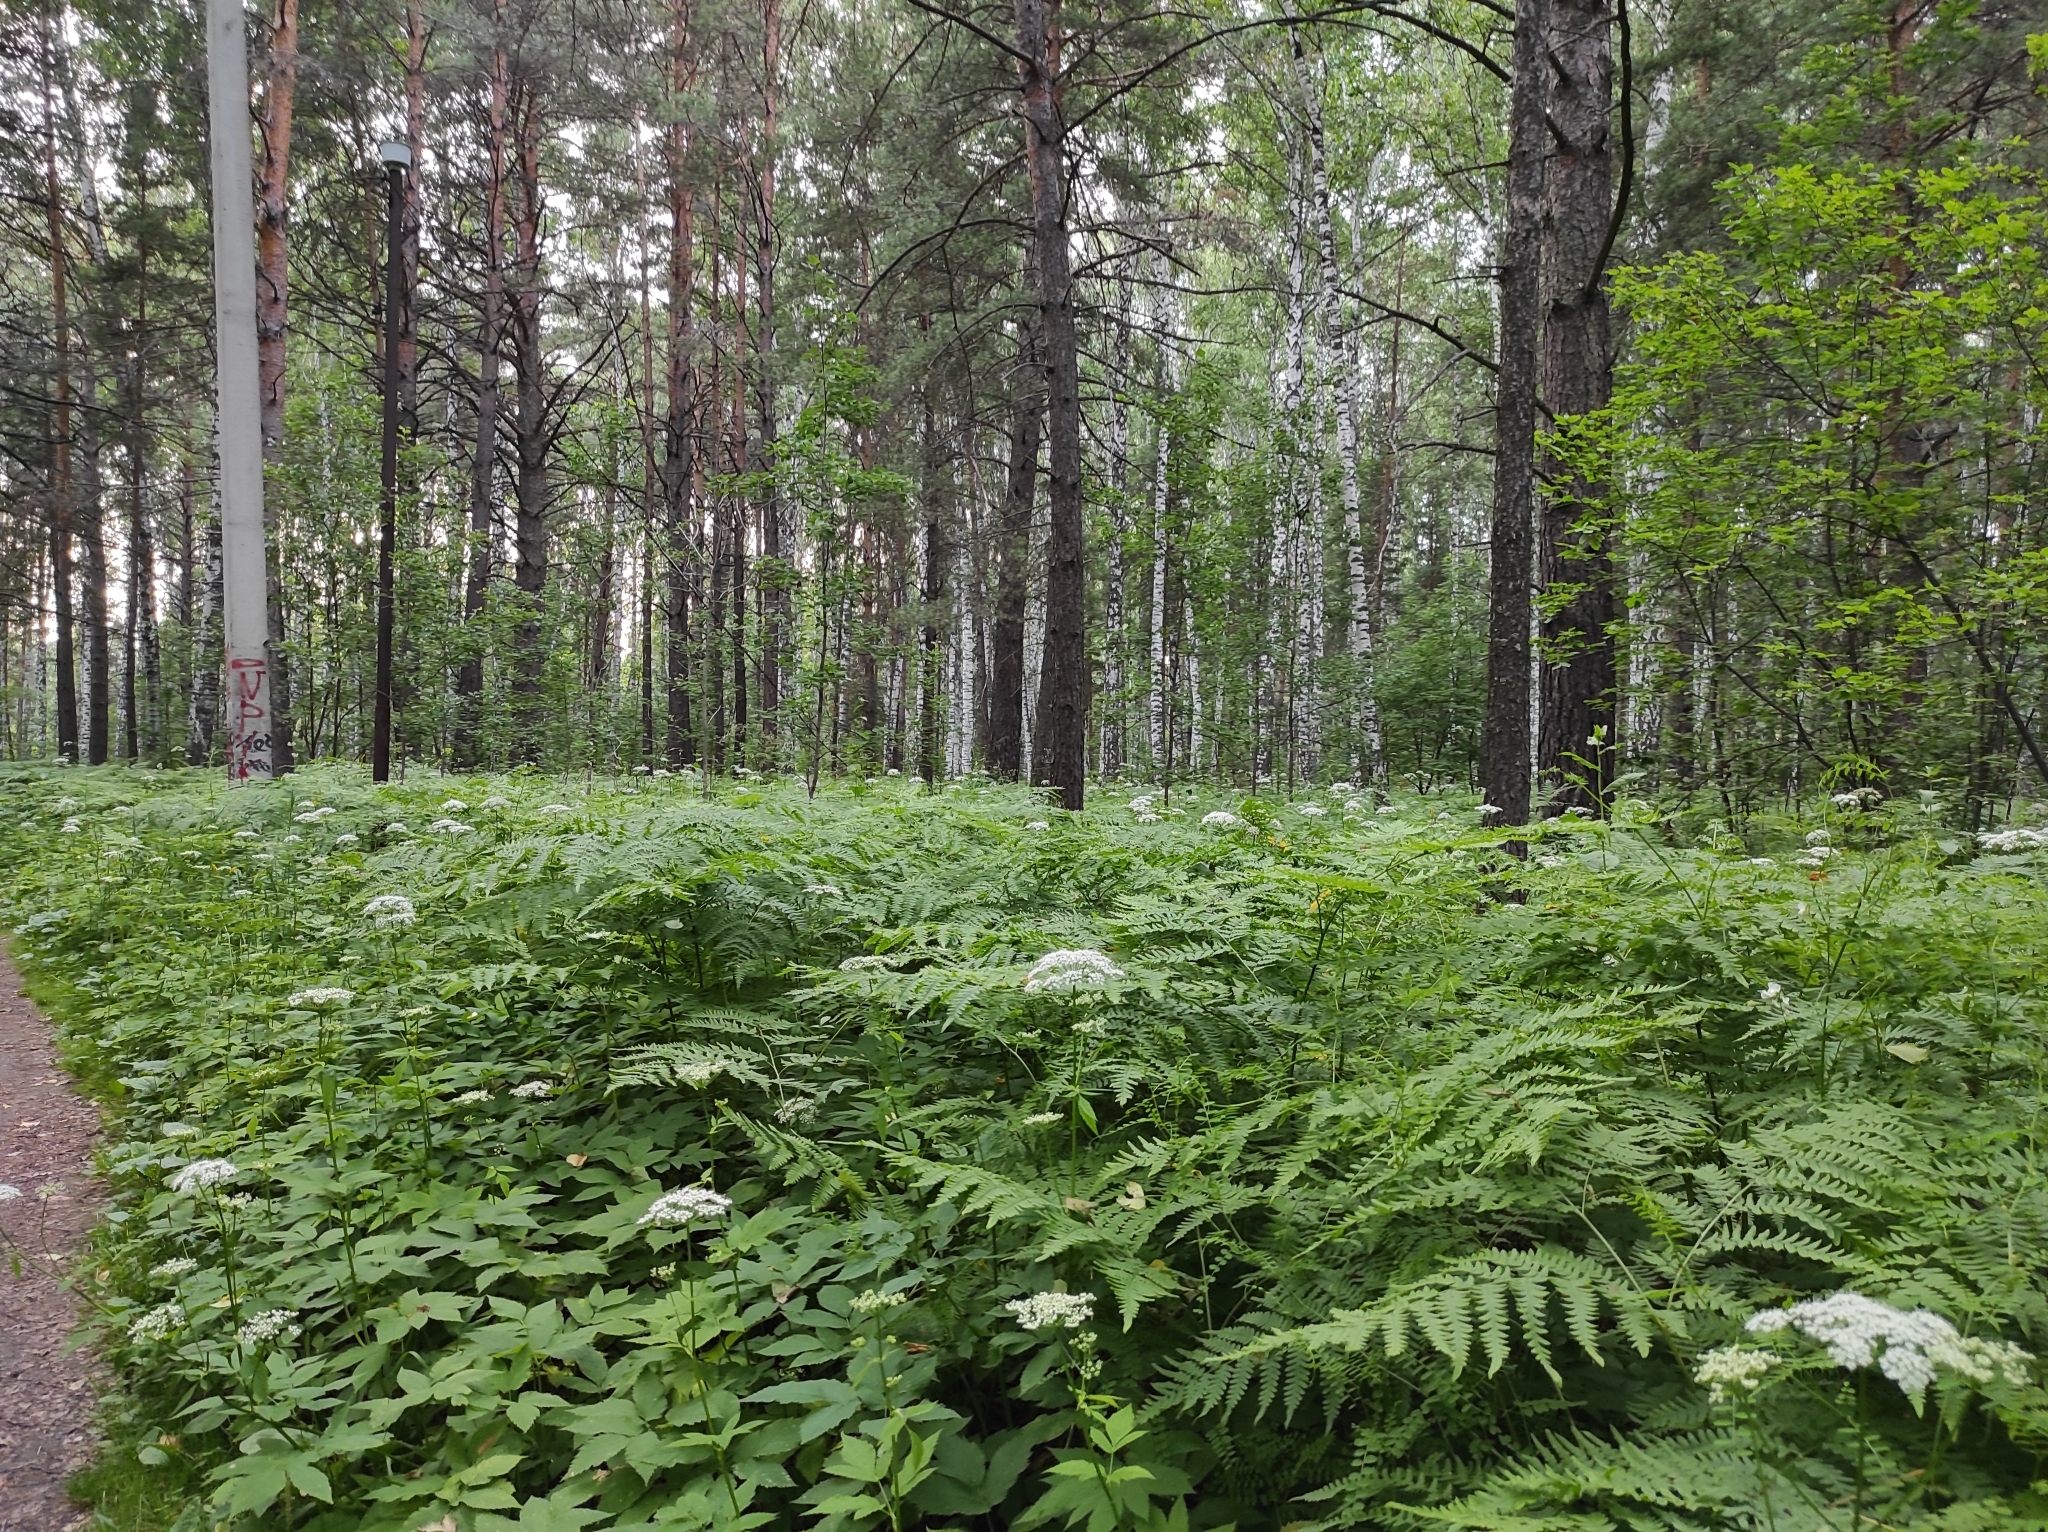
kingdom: Plantae
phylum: Tracheophyta
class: Polypodiopsida
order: Polypodiales
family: Dennstaedtiaceae
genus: Pteridium
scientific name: Pteridium aquilinum
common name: Bracken
